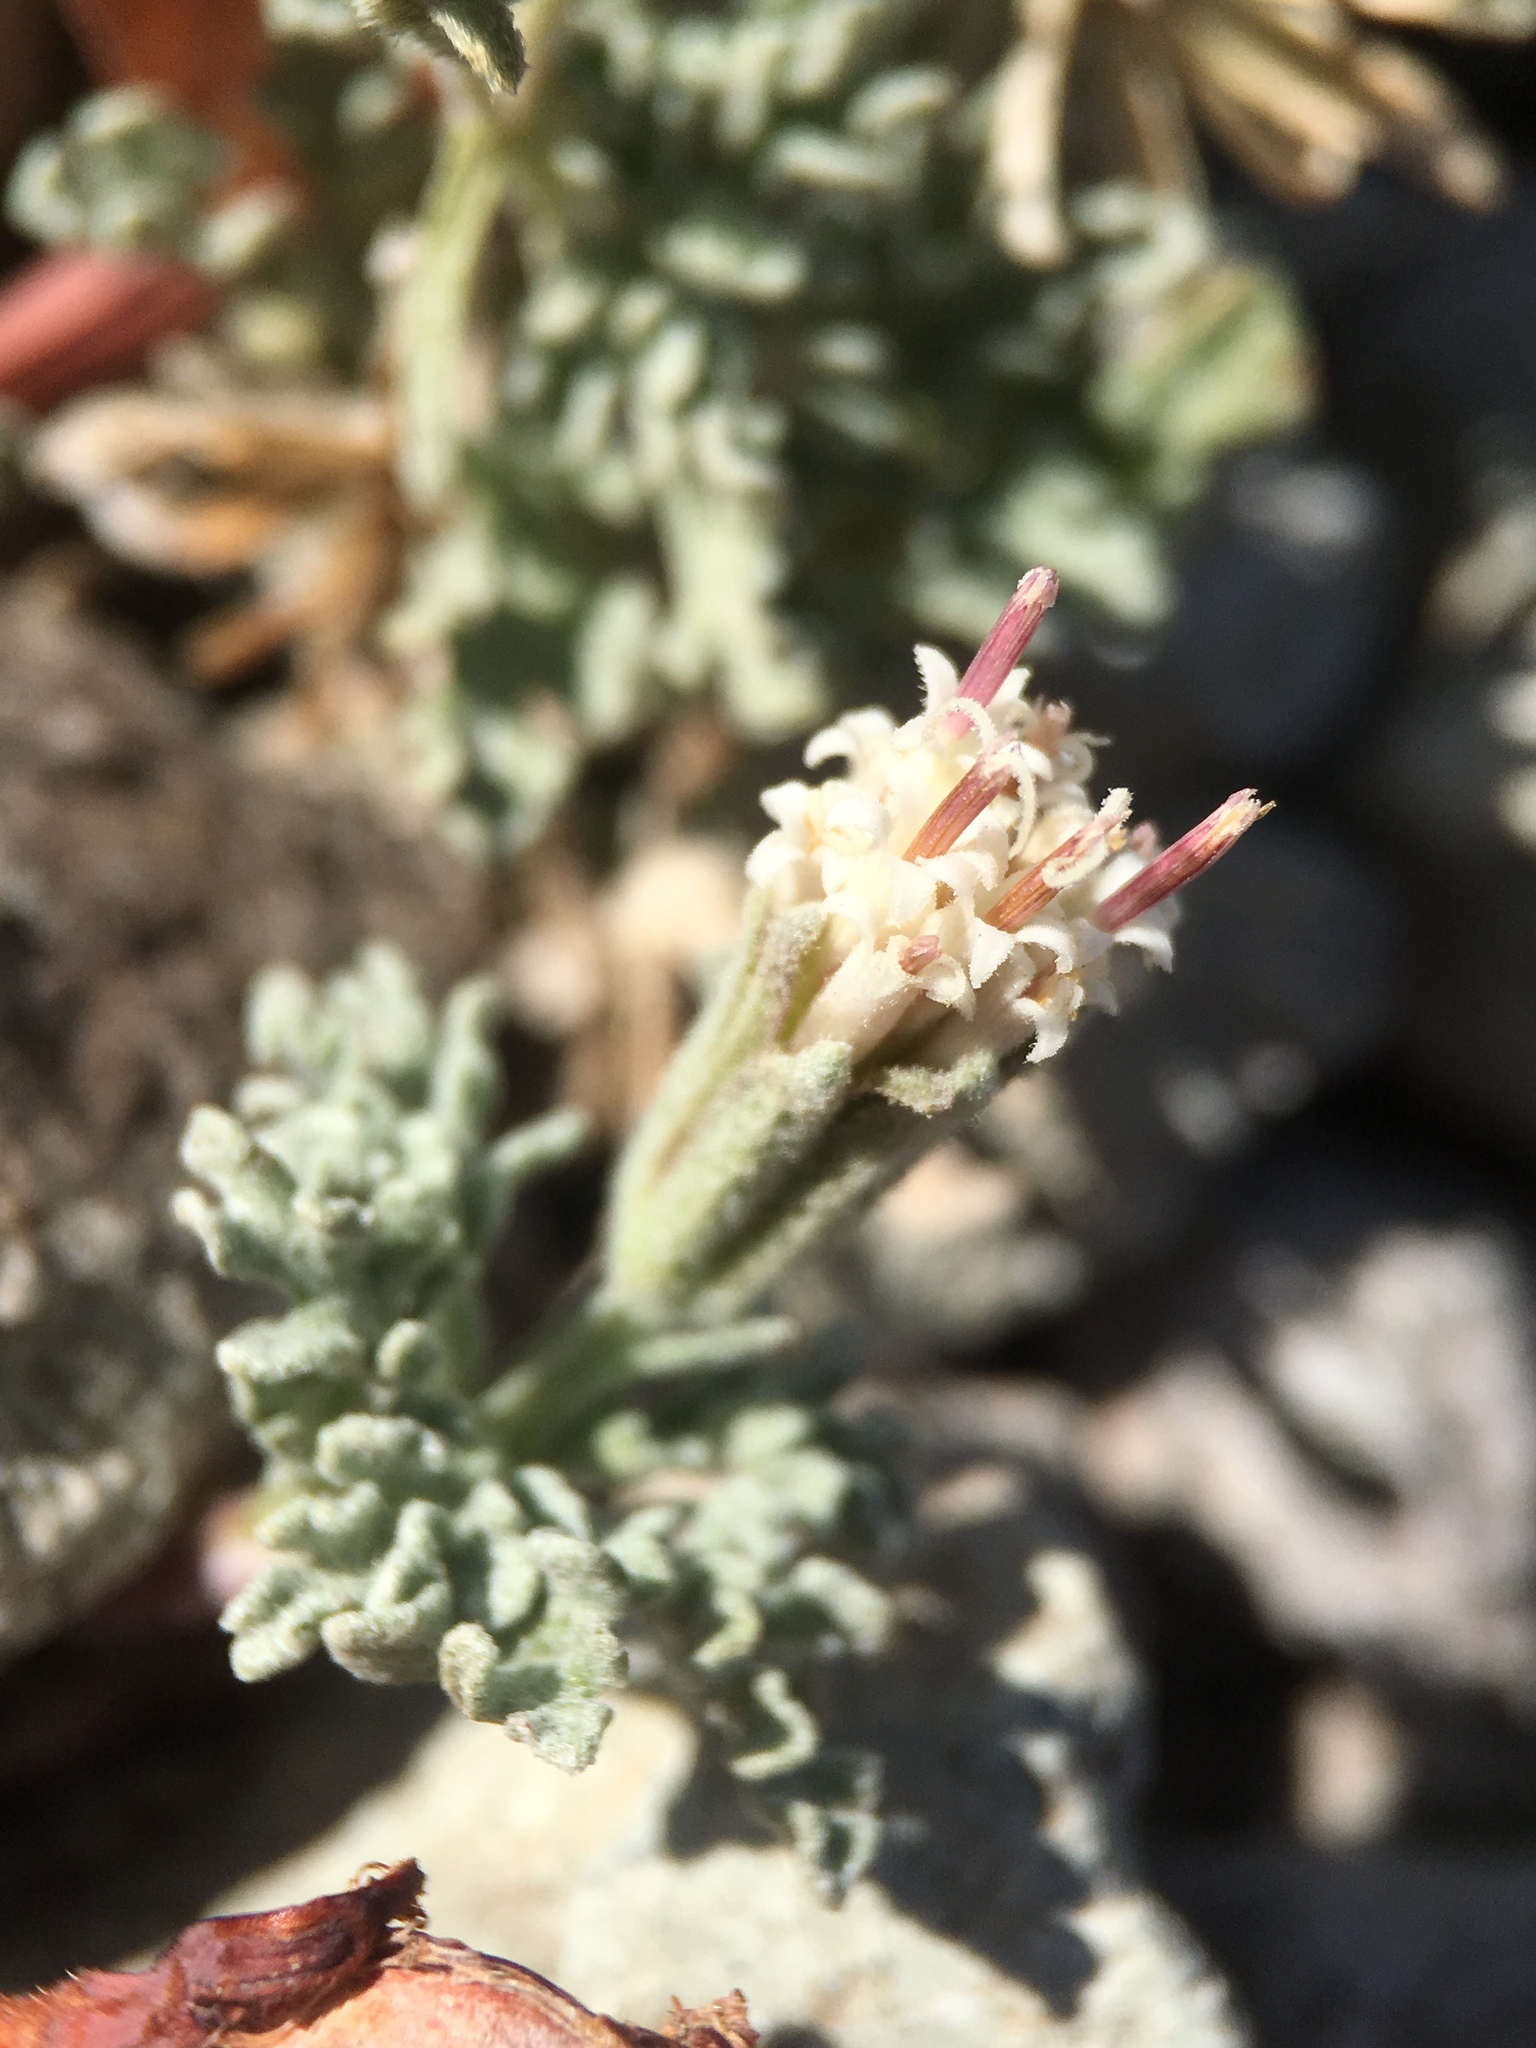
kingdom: Plantae
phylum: Tracheophyta
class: Magnoliopsida
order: Asterales
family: Asteraceae
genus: Chaenactis
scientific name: Chaenactis alpigena
